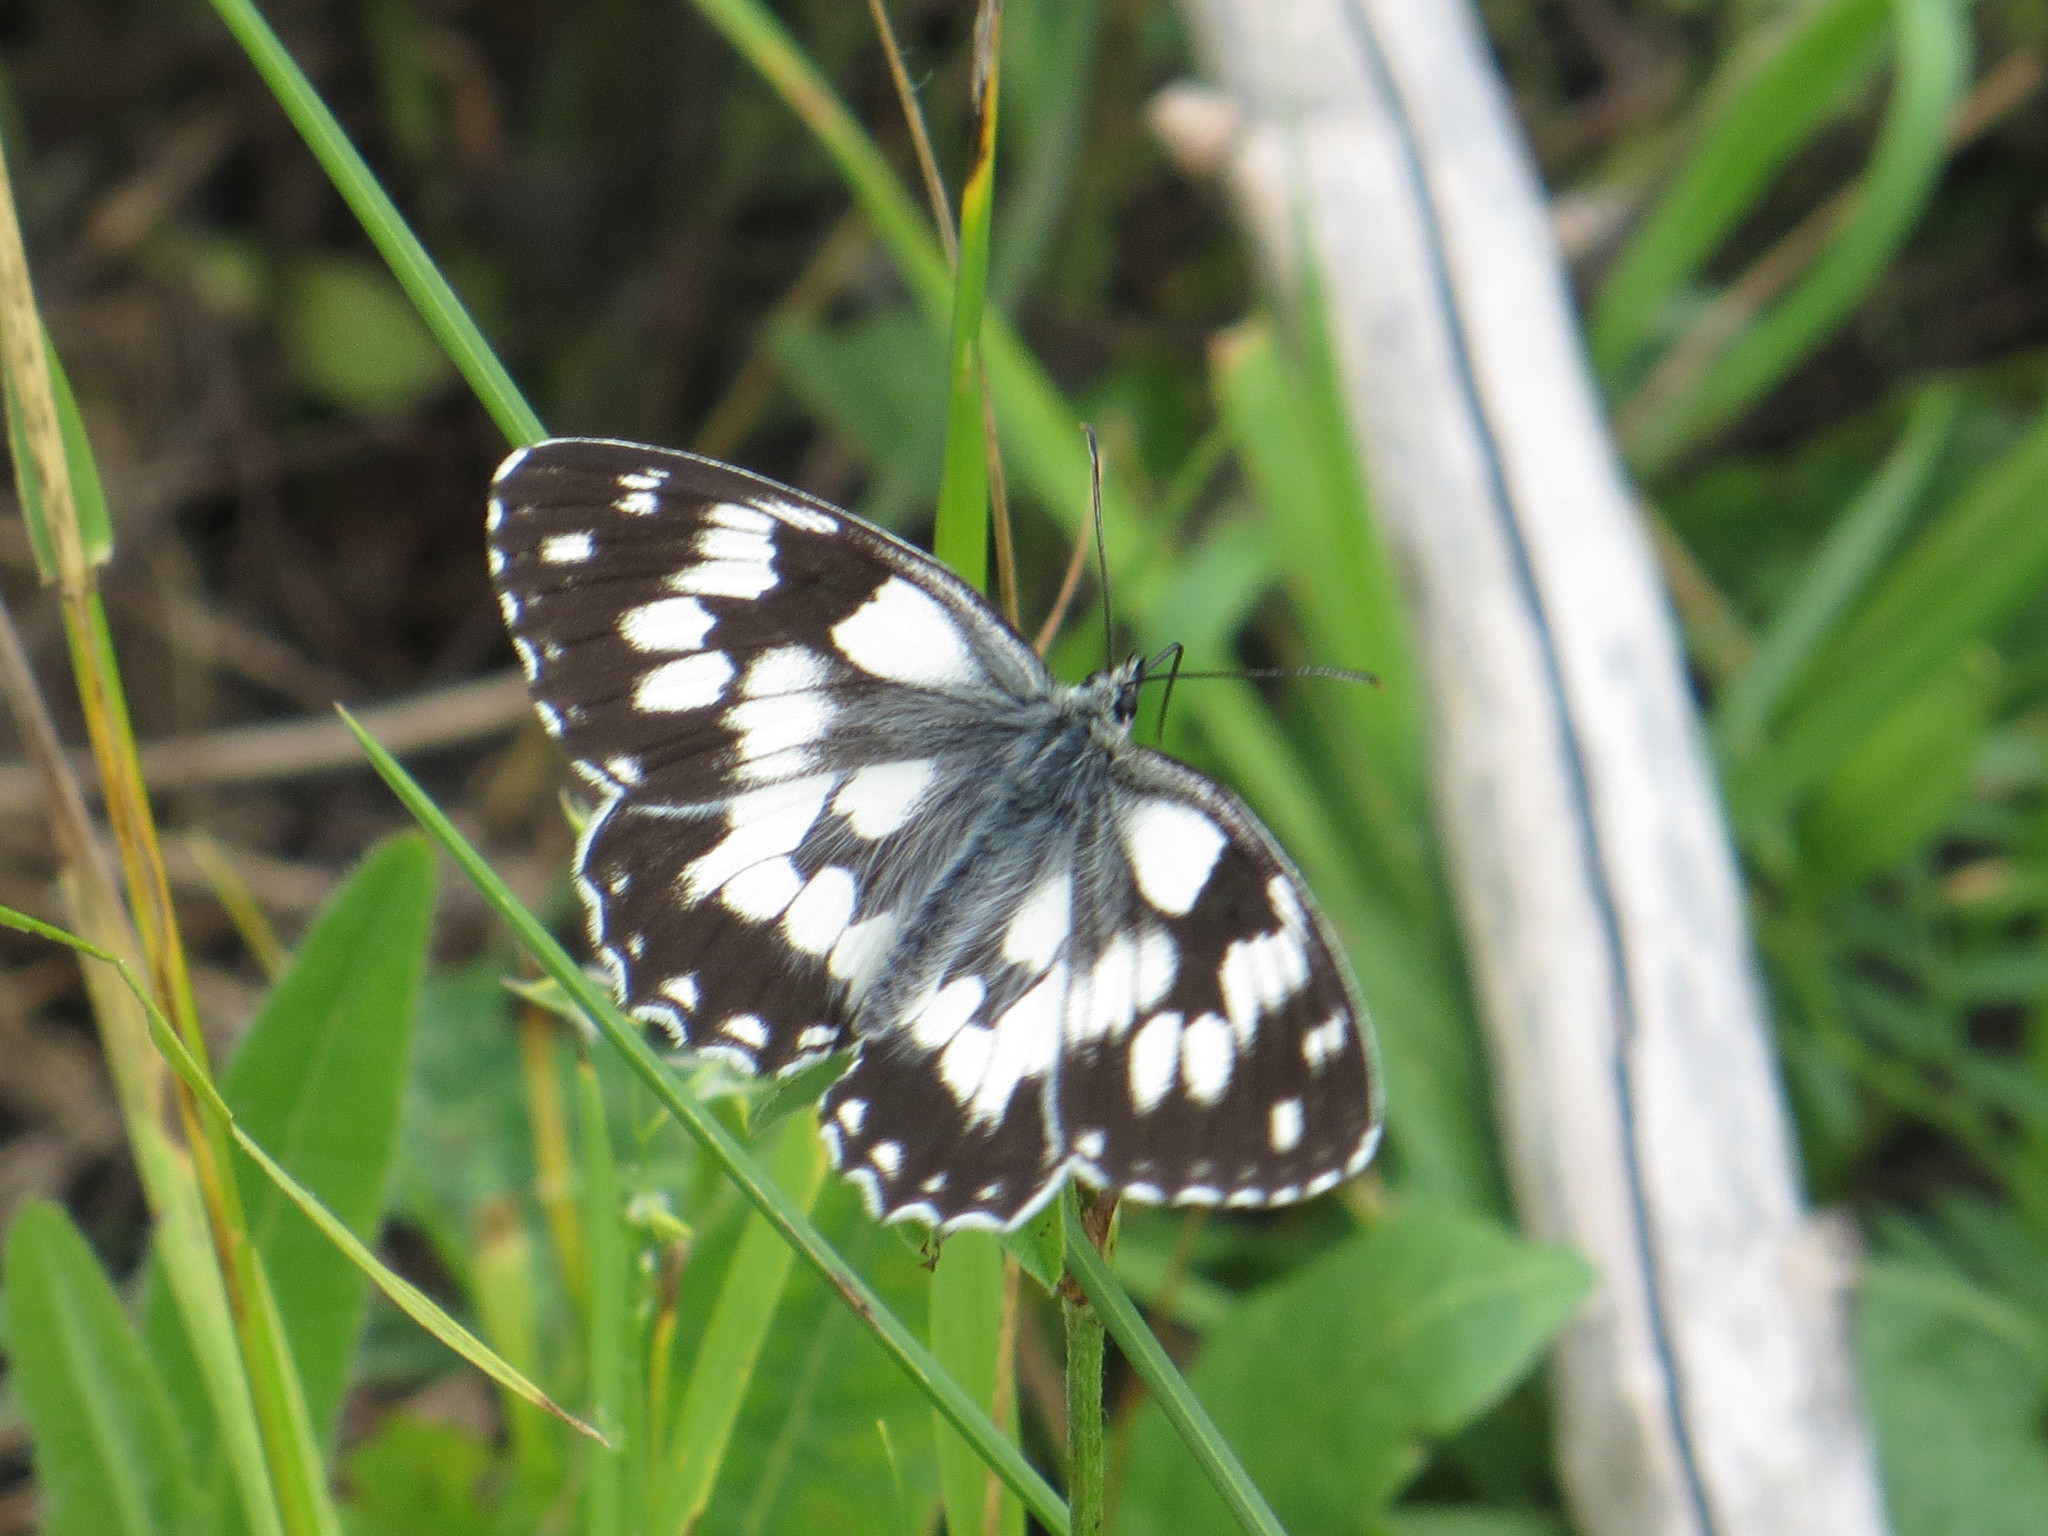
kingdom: Animalia
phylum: Arthropoda
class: Insecta
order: Lepidoptera
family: Nymphalidae
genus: Melanargia
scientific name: Melanargia galathea
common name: Marbled white
